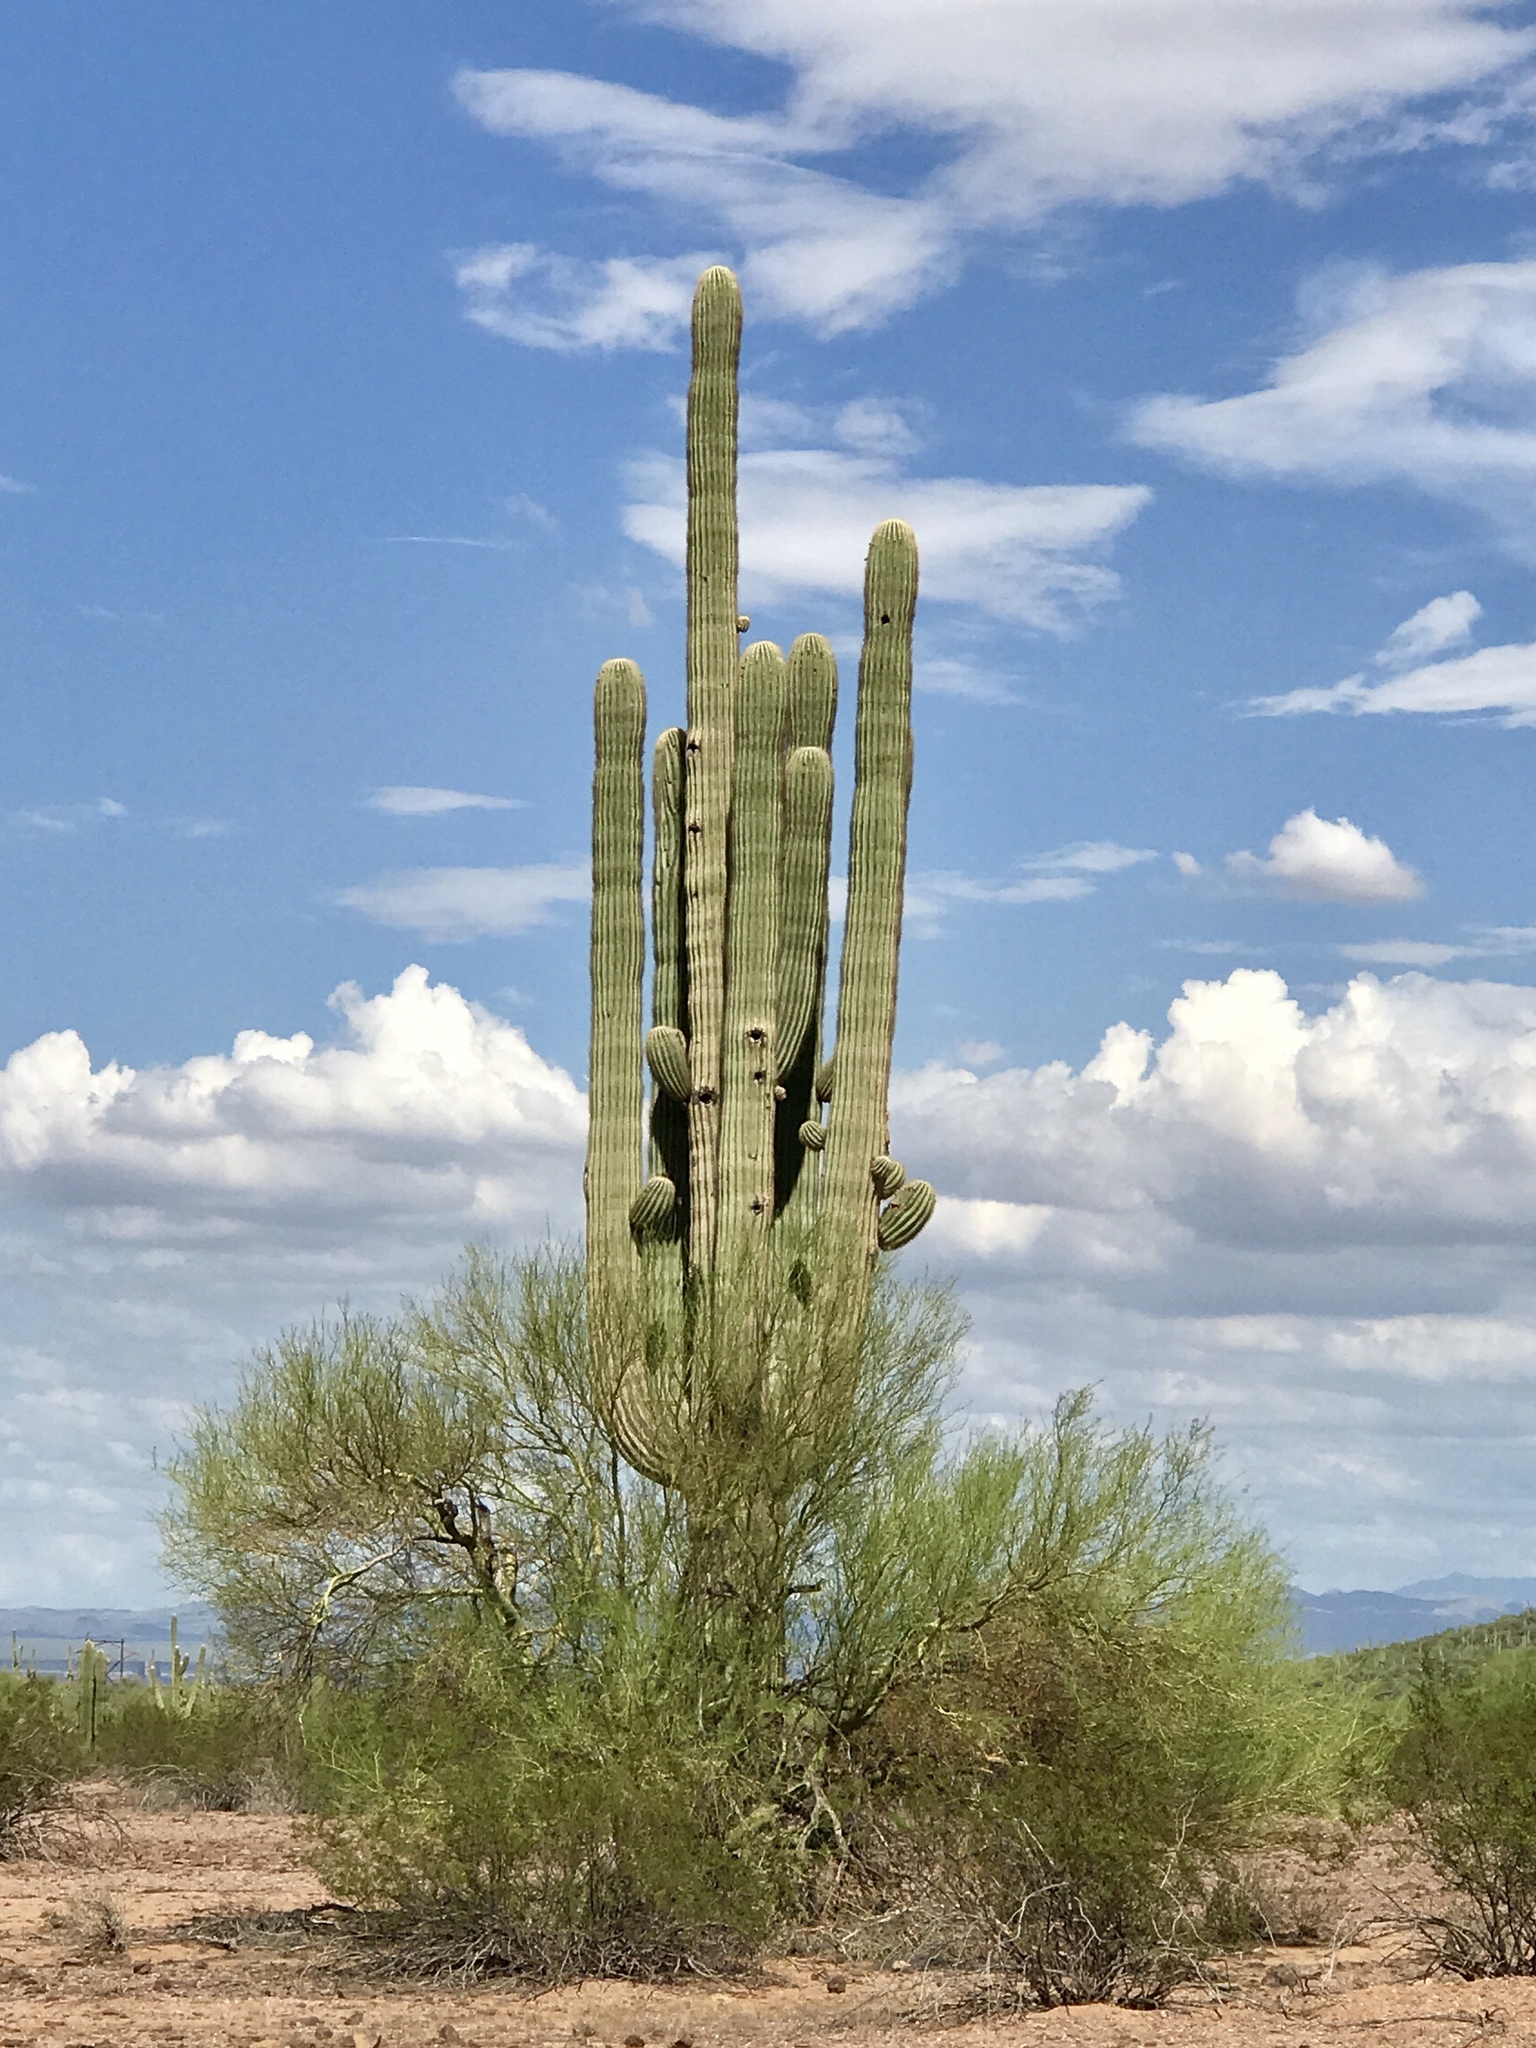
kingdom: Plantae
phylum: Tracheophyta
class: Magnoliopsida
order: Caryophyllales
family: Cactaceae
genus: Carnegiea
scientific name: Carnegiea gigantea
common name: Saguaro
